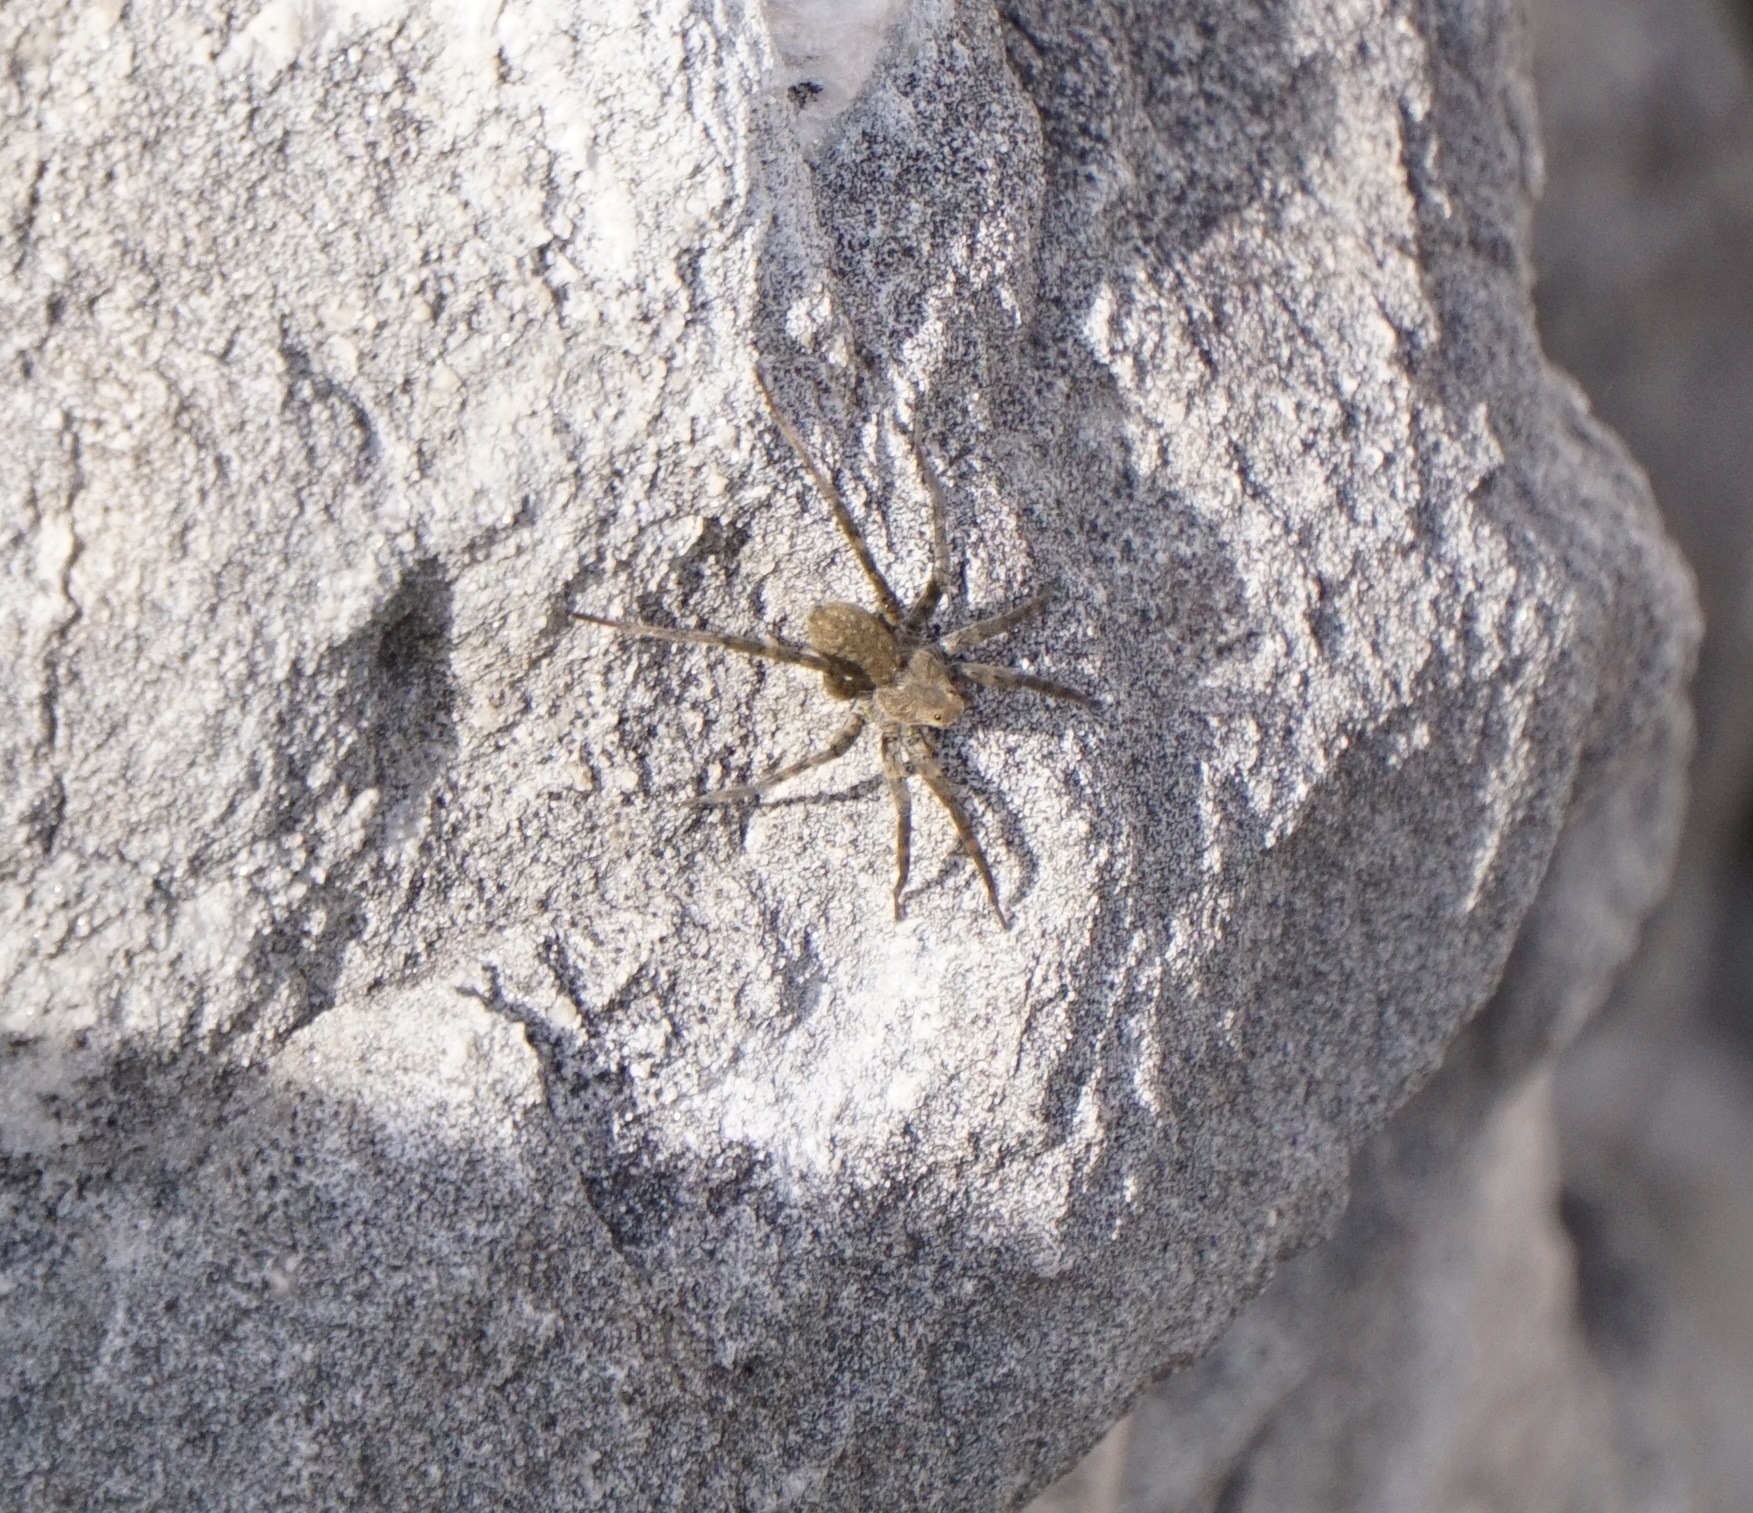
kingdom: Animalia
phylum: Arthropoda
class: Arachnida
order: Araneae
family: Lycosidae
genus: Pardosa
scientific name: Pardosa lapidicina
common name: Stone spider
